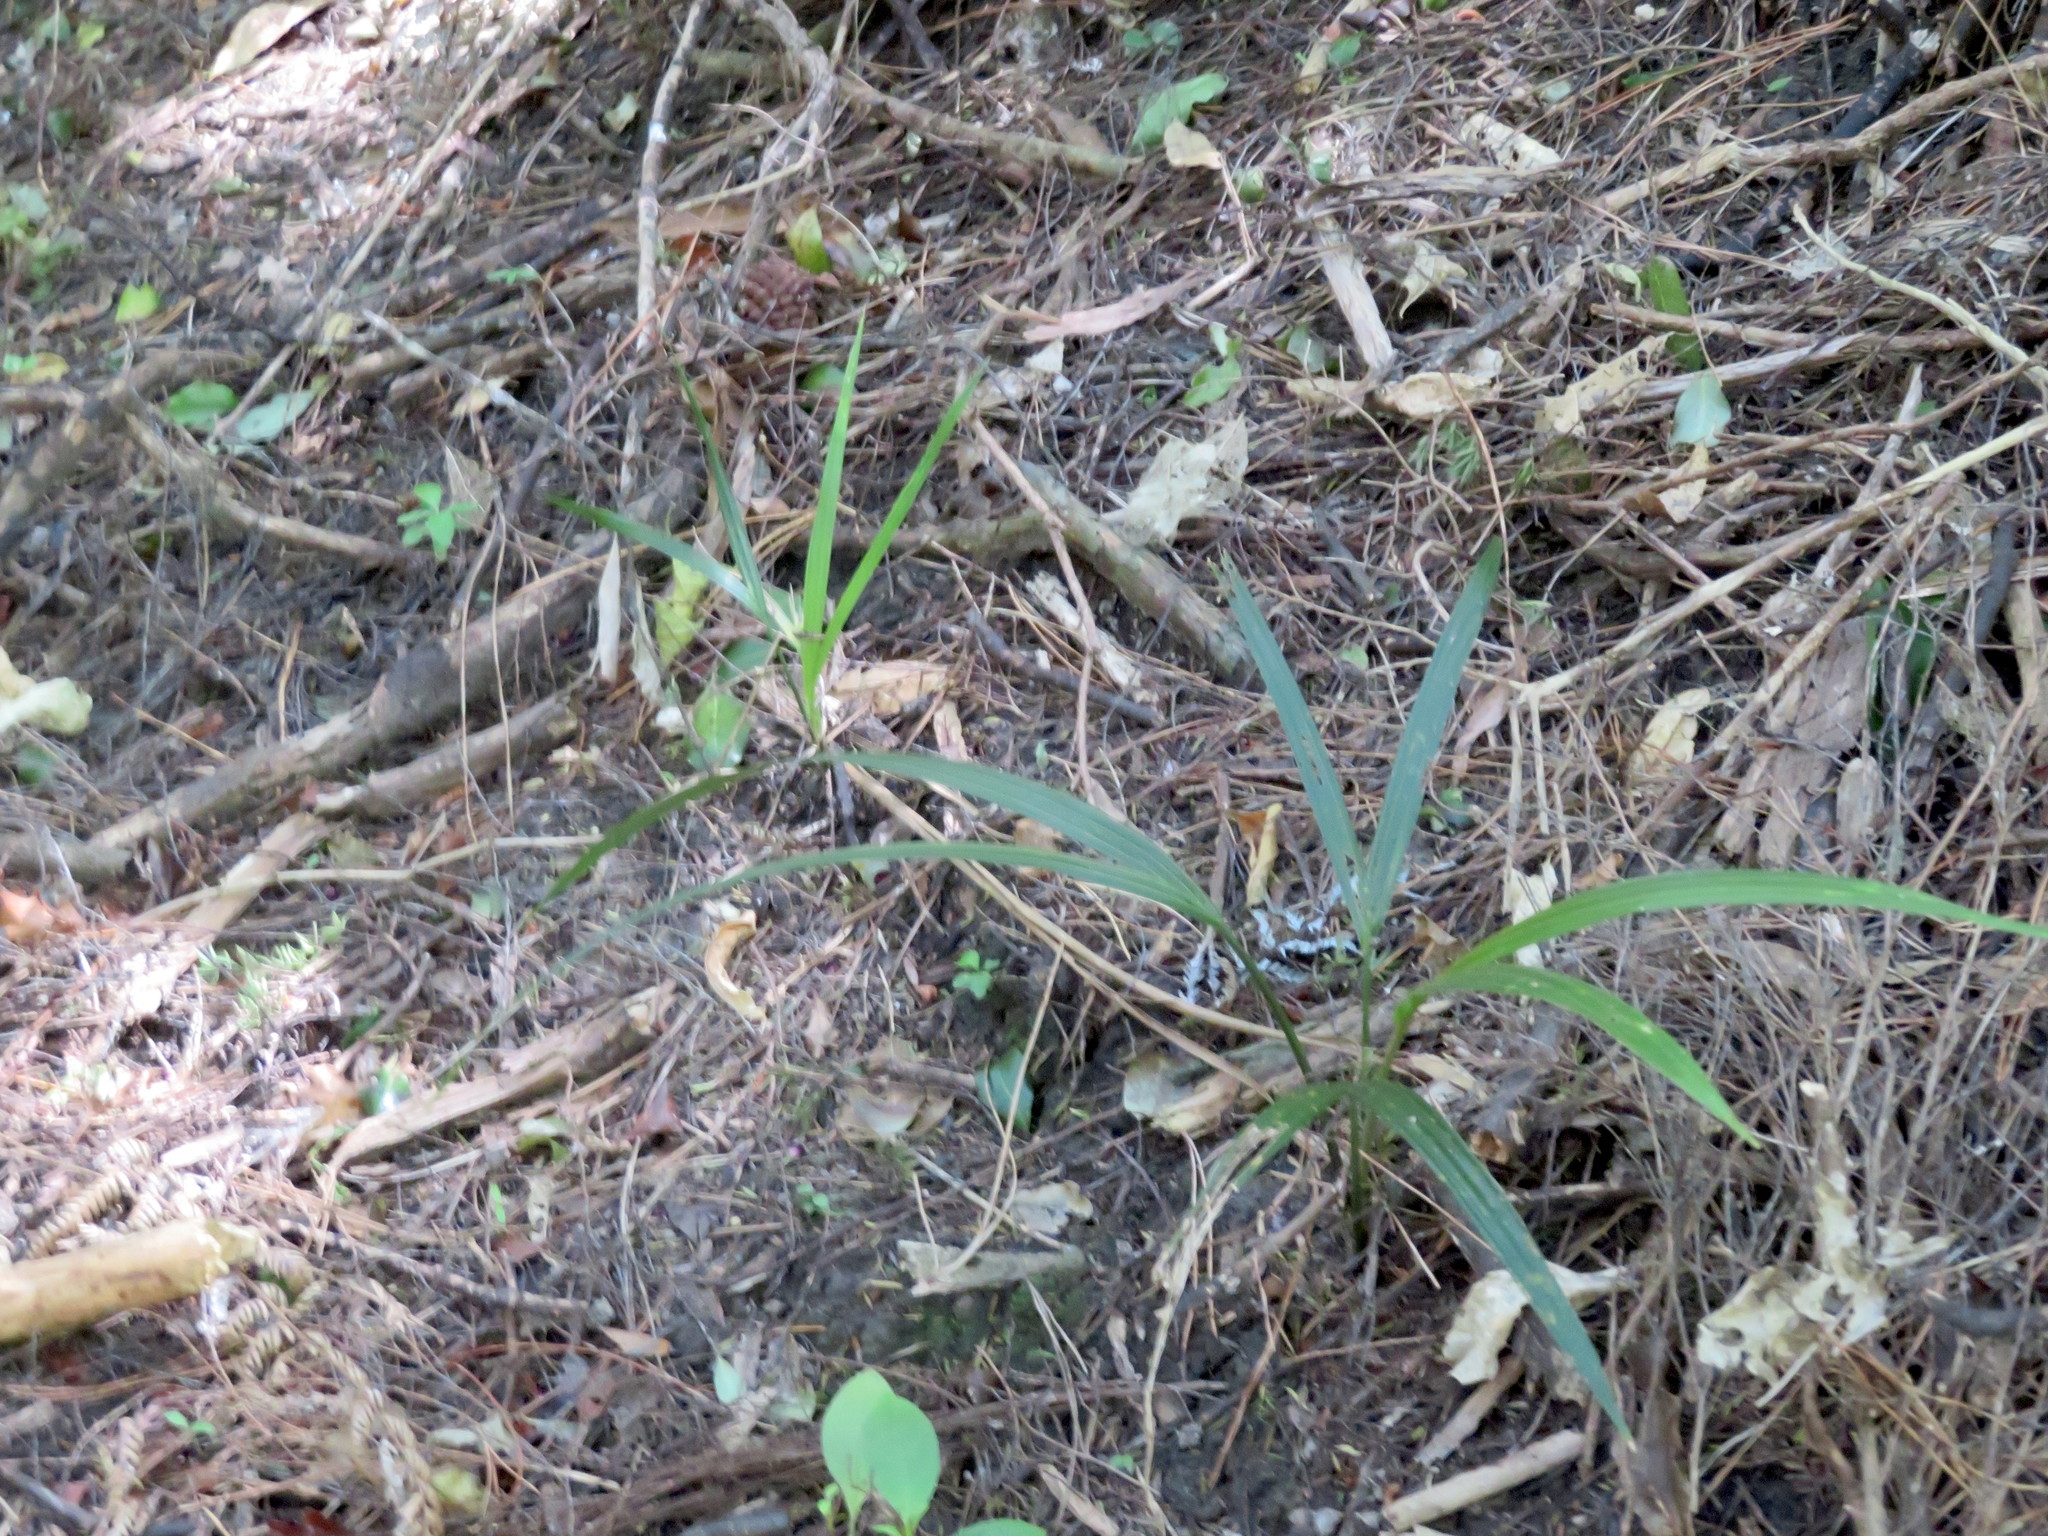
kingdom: Plantae
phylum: Tracheophyta
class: Liliopsida
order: Arecales
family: Arecaceae
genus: Rhopalostylis
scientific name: Rhopalostylis sapida
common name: Feather-duster palm
